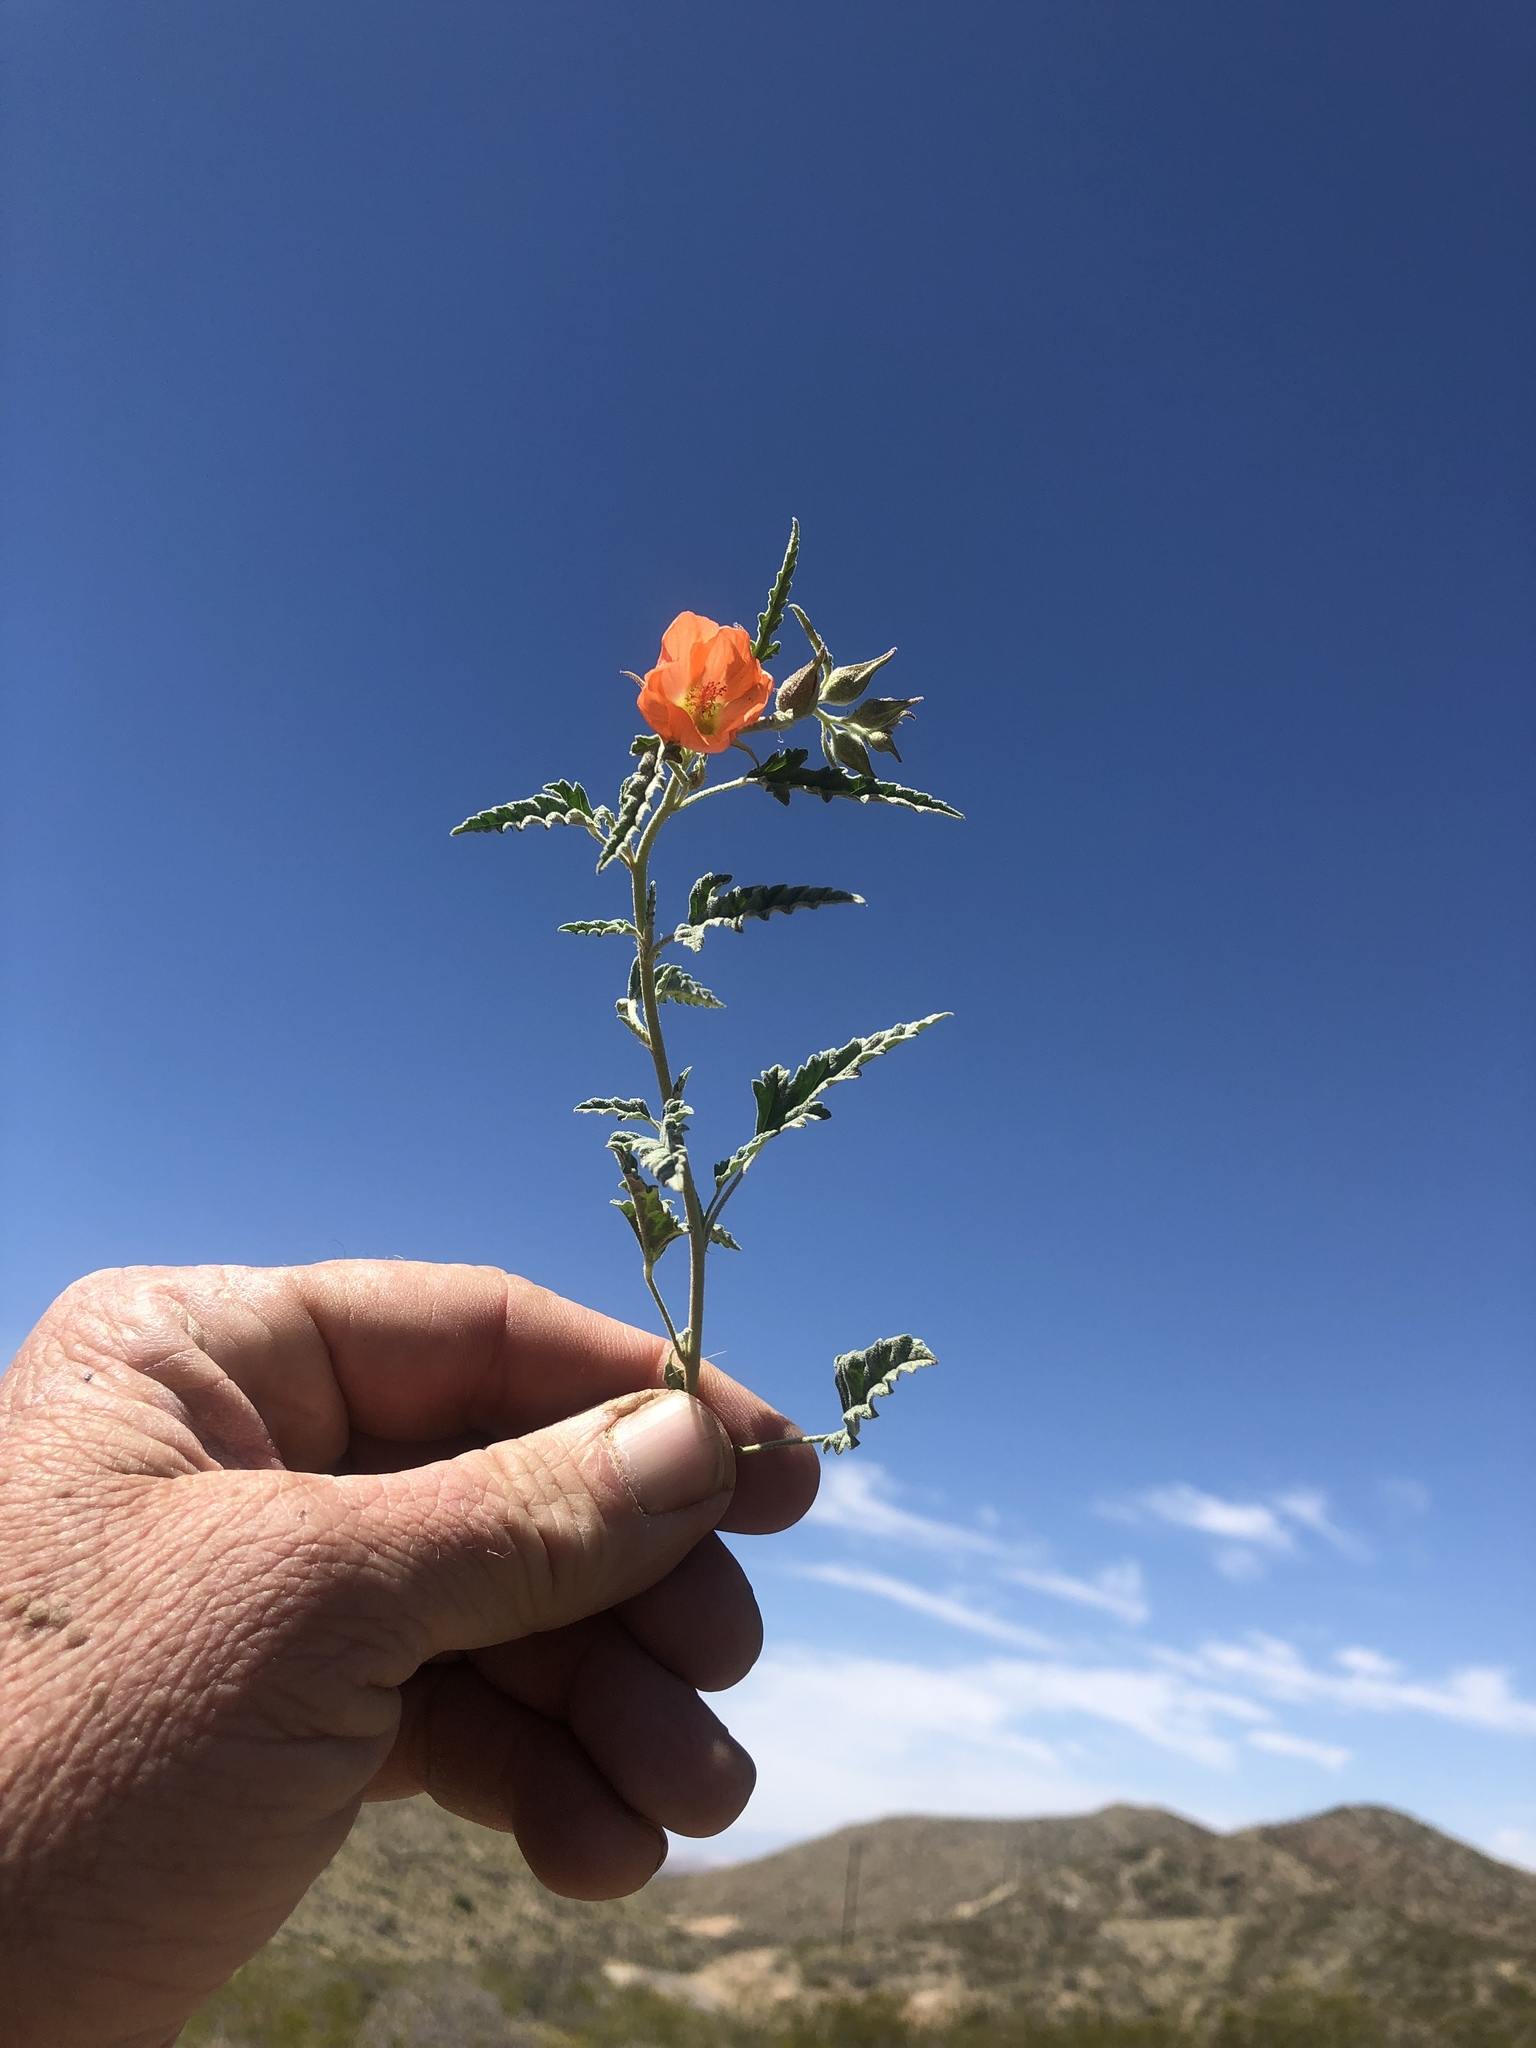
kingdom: Plantae
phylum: Tracheophyta
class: Magnoliopsida
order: Malvales
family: Malvaceae
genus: Sphaeralcea
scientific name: Sphaeralcea hastulata
